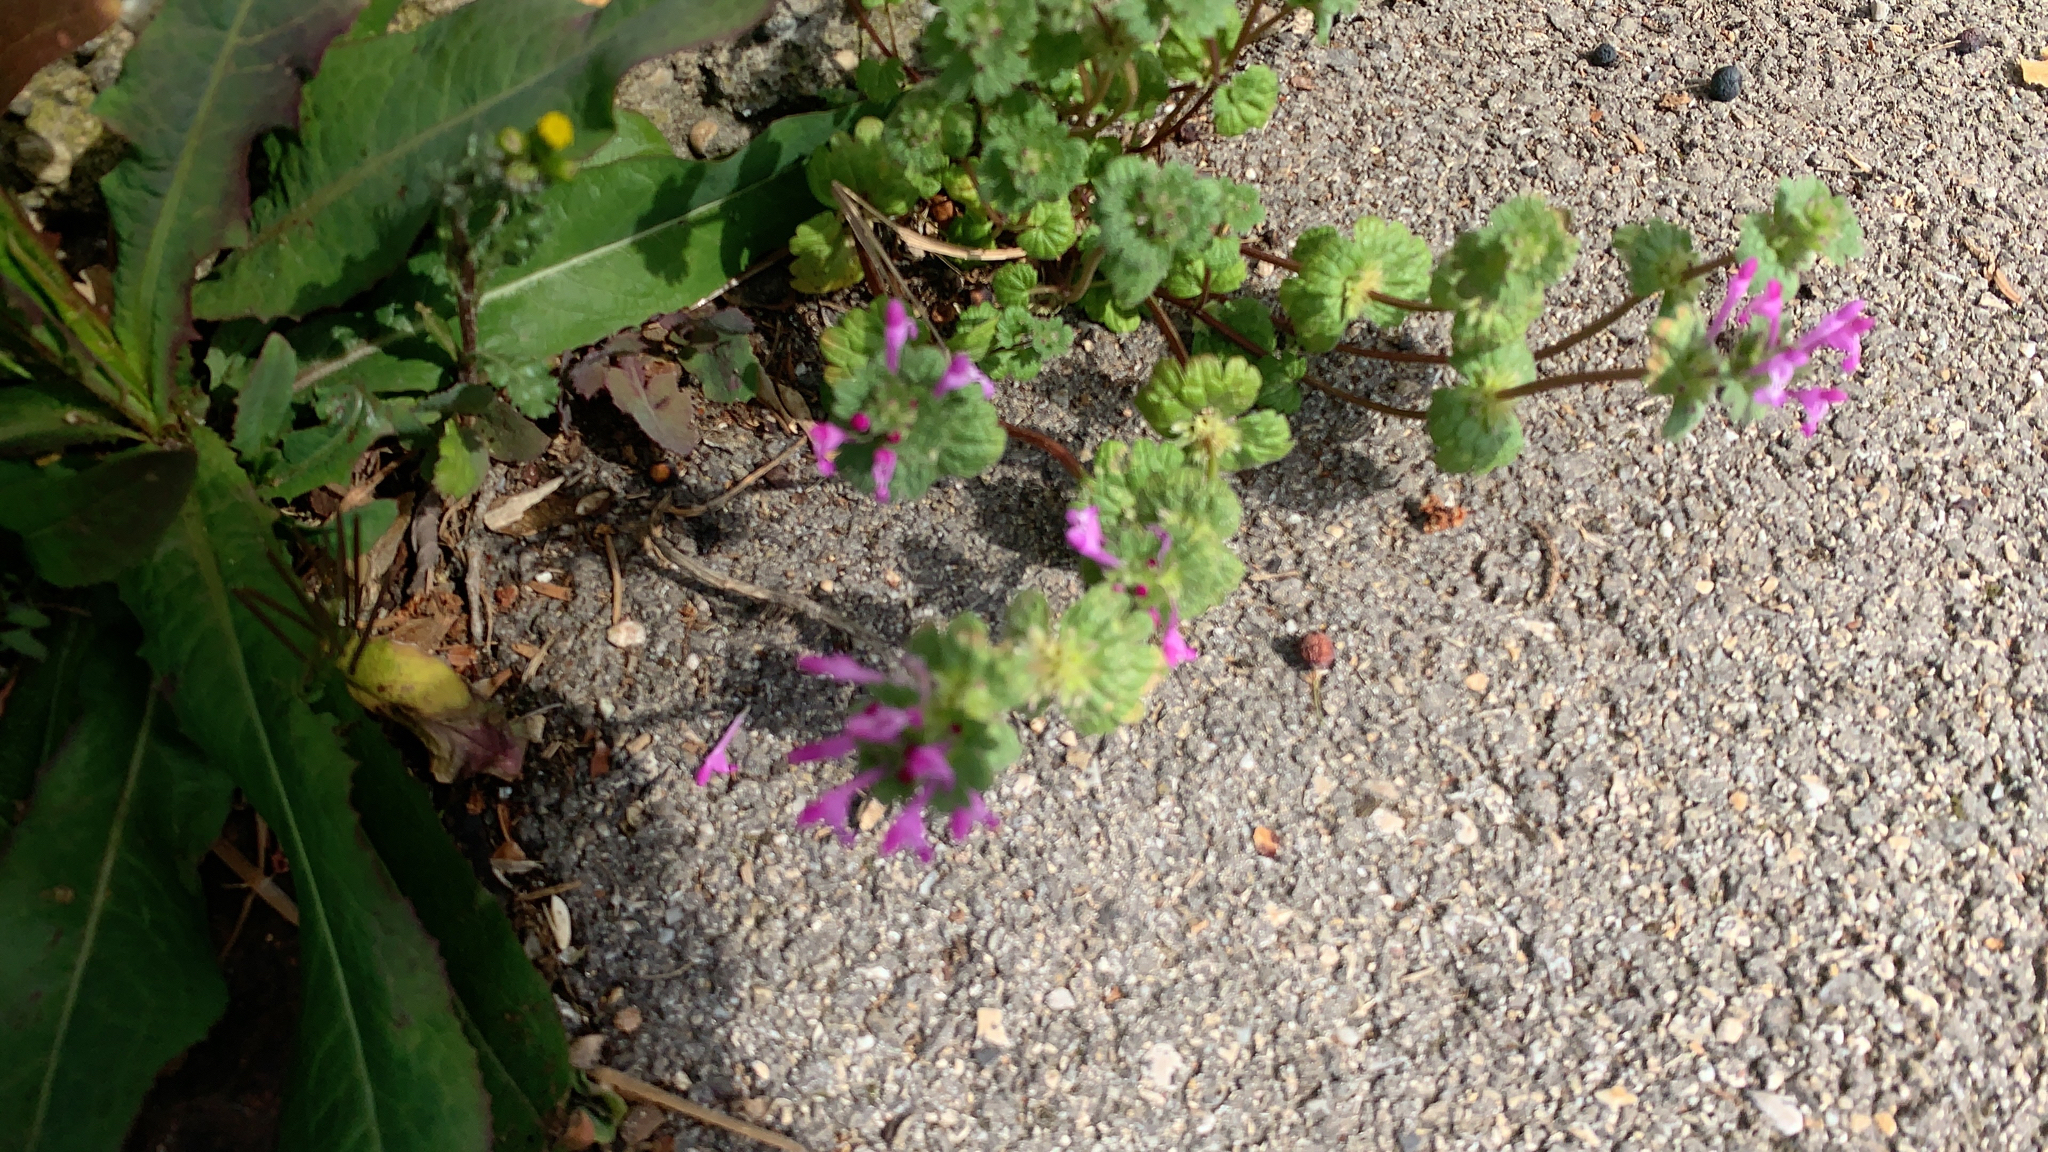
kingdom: Plantae
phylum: Tracheophyta
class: Magnoliopsida
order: Lamiales
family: Lamiaceae
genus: Lamium
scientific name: Lamium amplexicaule
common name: Henbit dead-nettle
